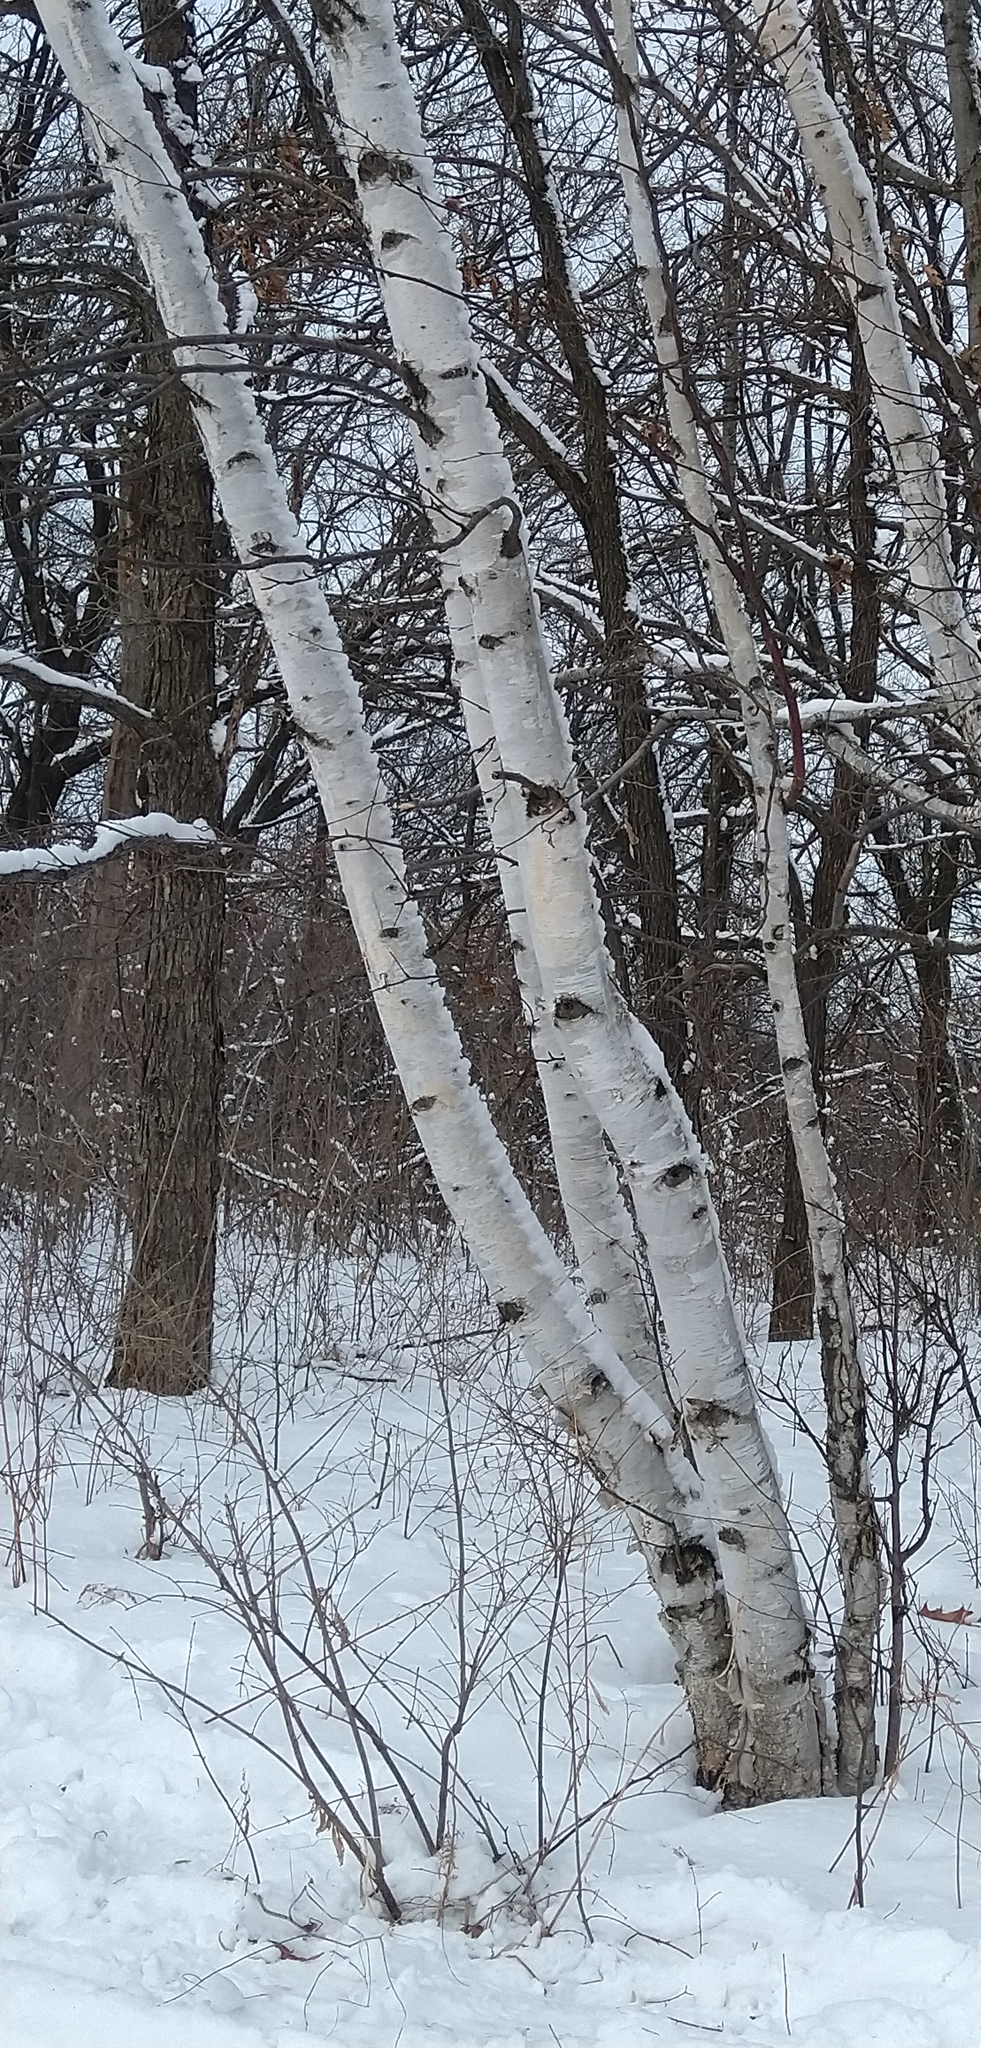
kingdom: Plantae
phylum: Tracheophyta
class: Magnoliopsida
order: Fagales
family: Betulaceae
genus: Betula
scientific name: Betula papyrifera
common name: Paper birch
